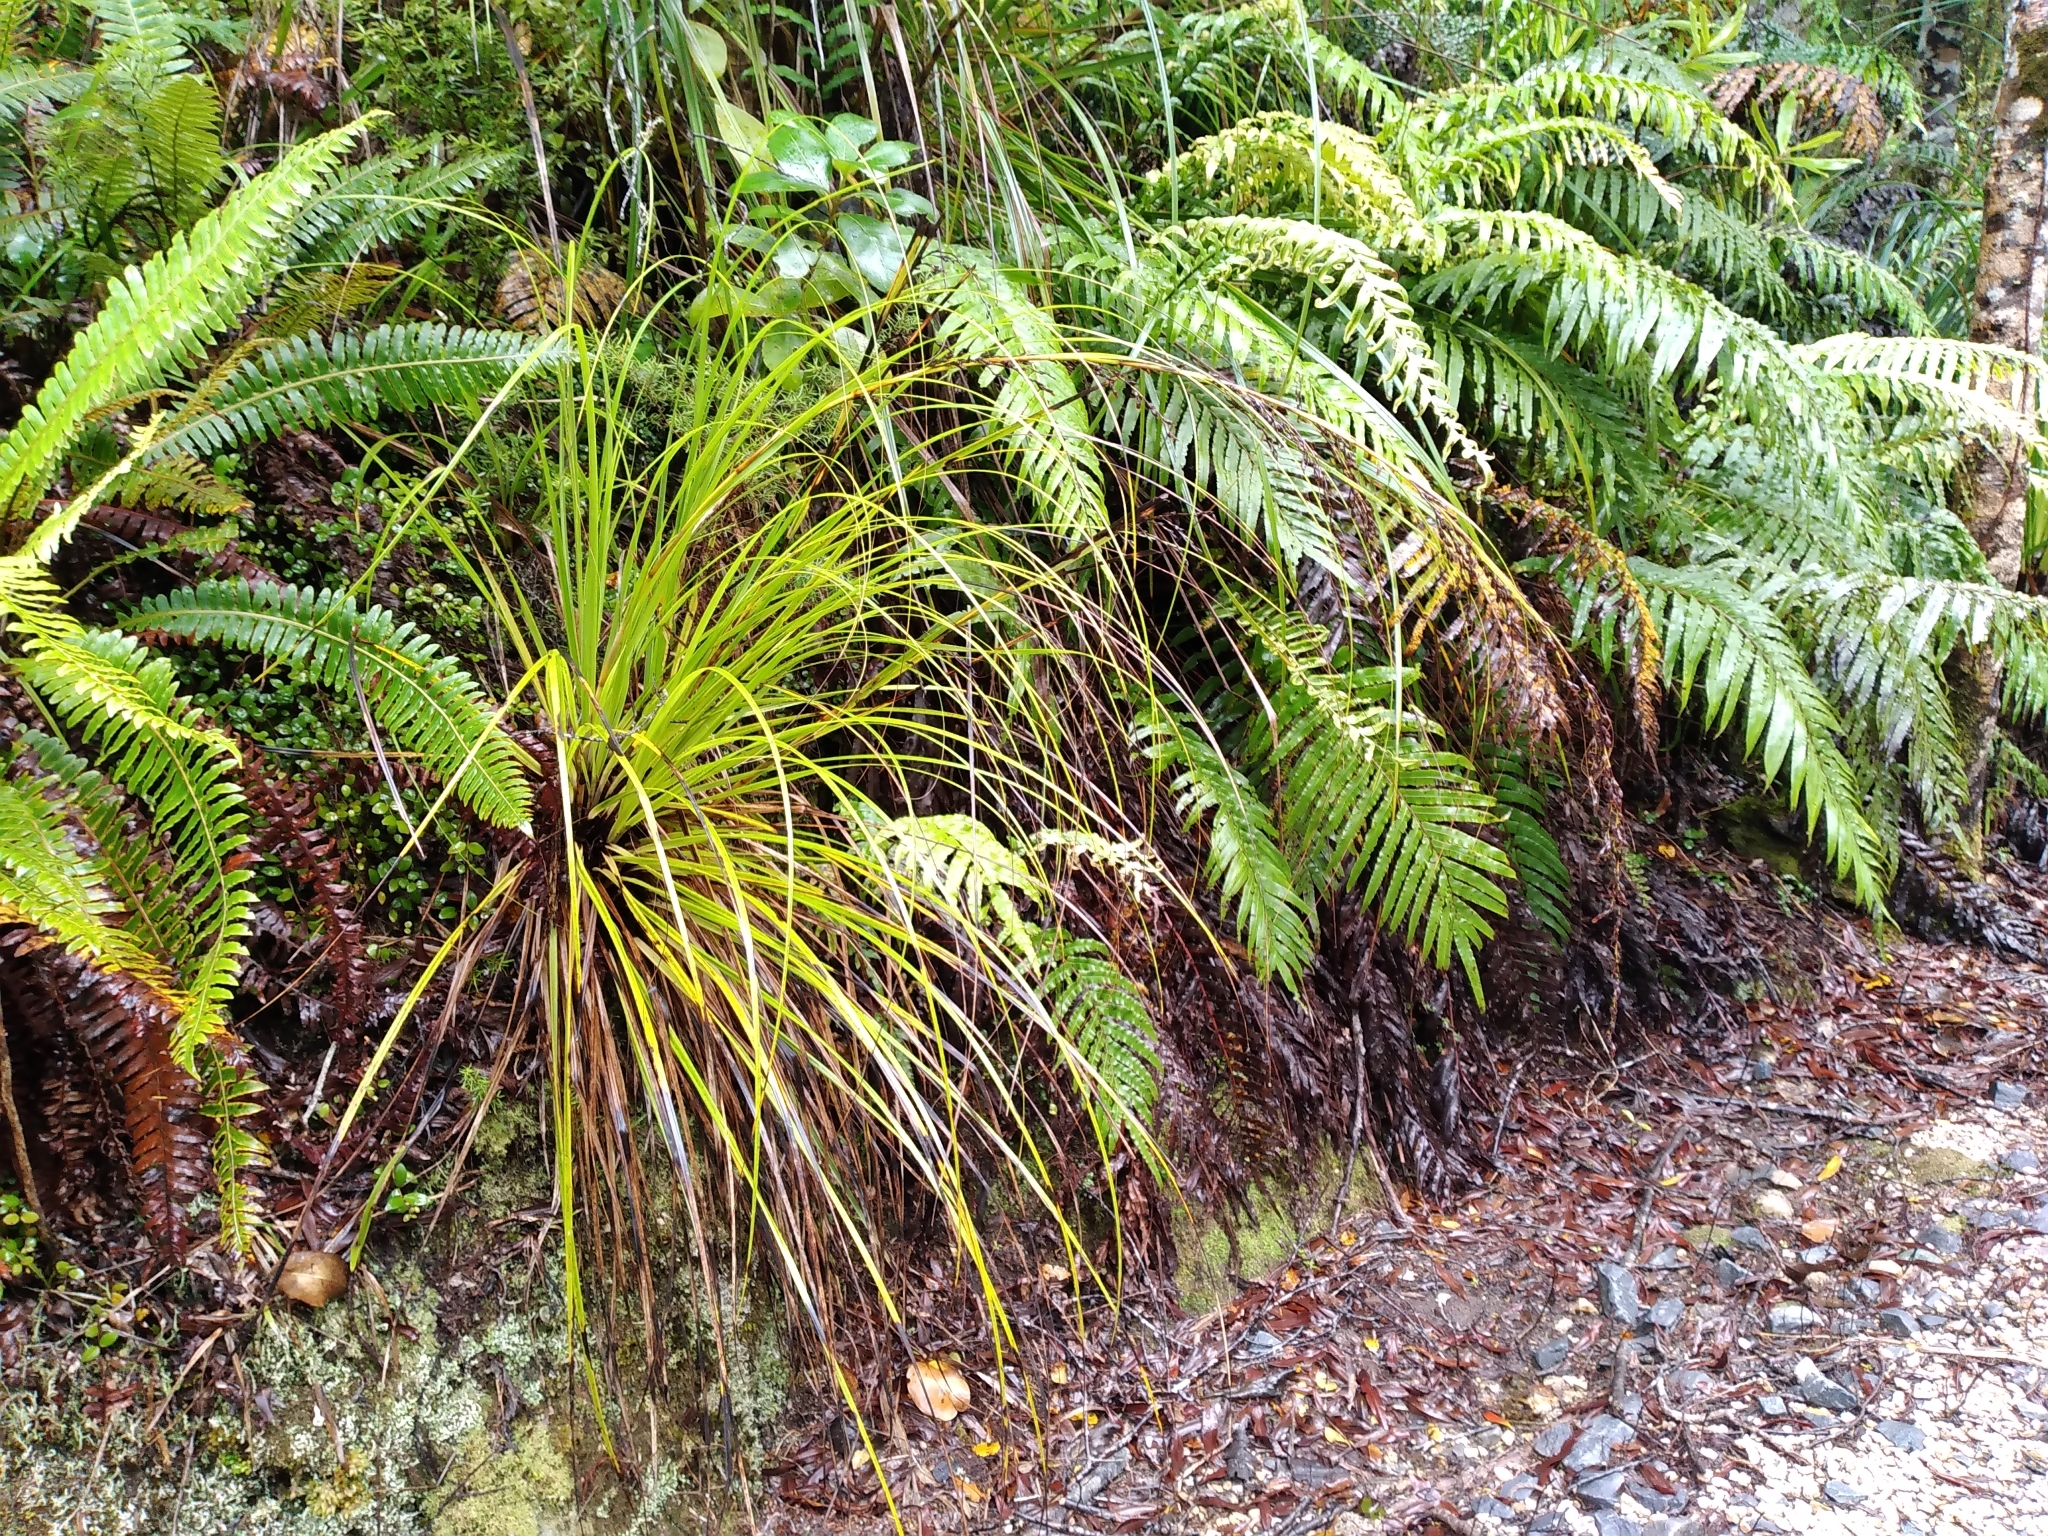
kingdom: Plantae
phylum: Tracheophyta
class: Liliopsida
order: Poales
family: Cyperaceae
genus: Gahnia
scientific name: Gahnia pauciflora
